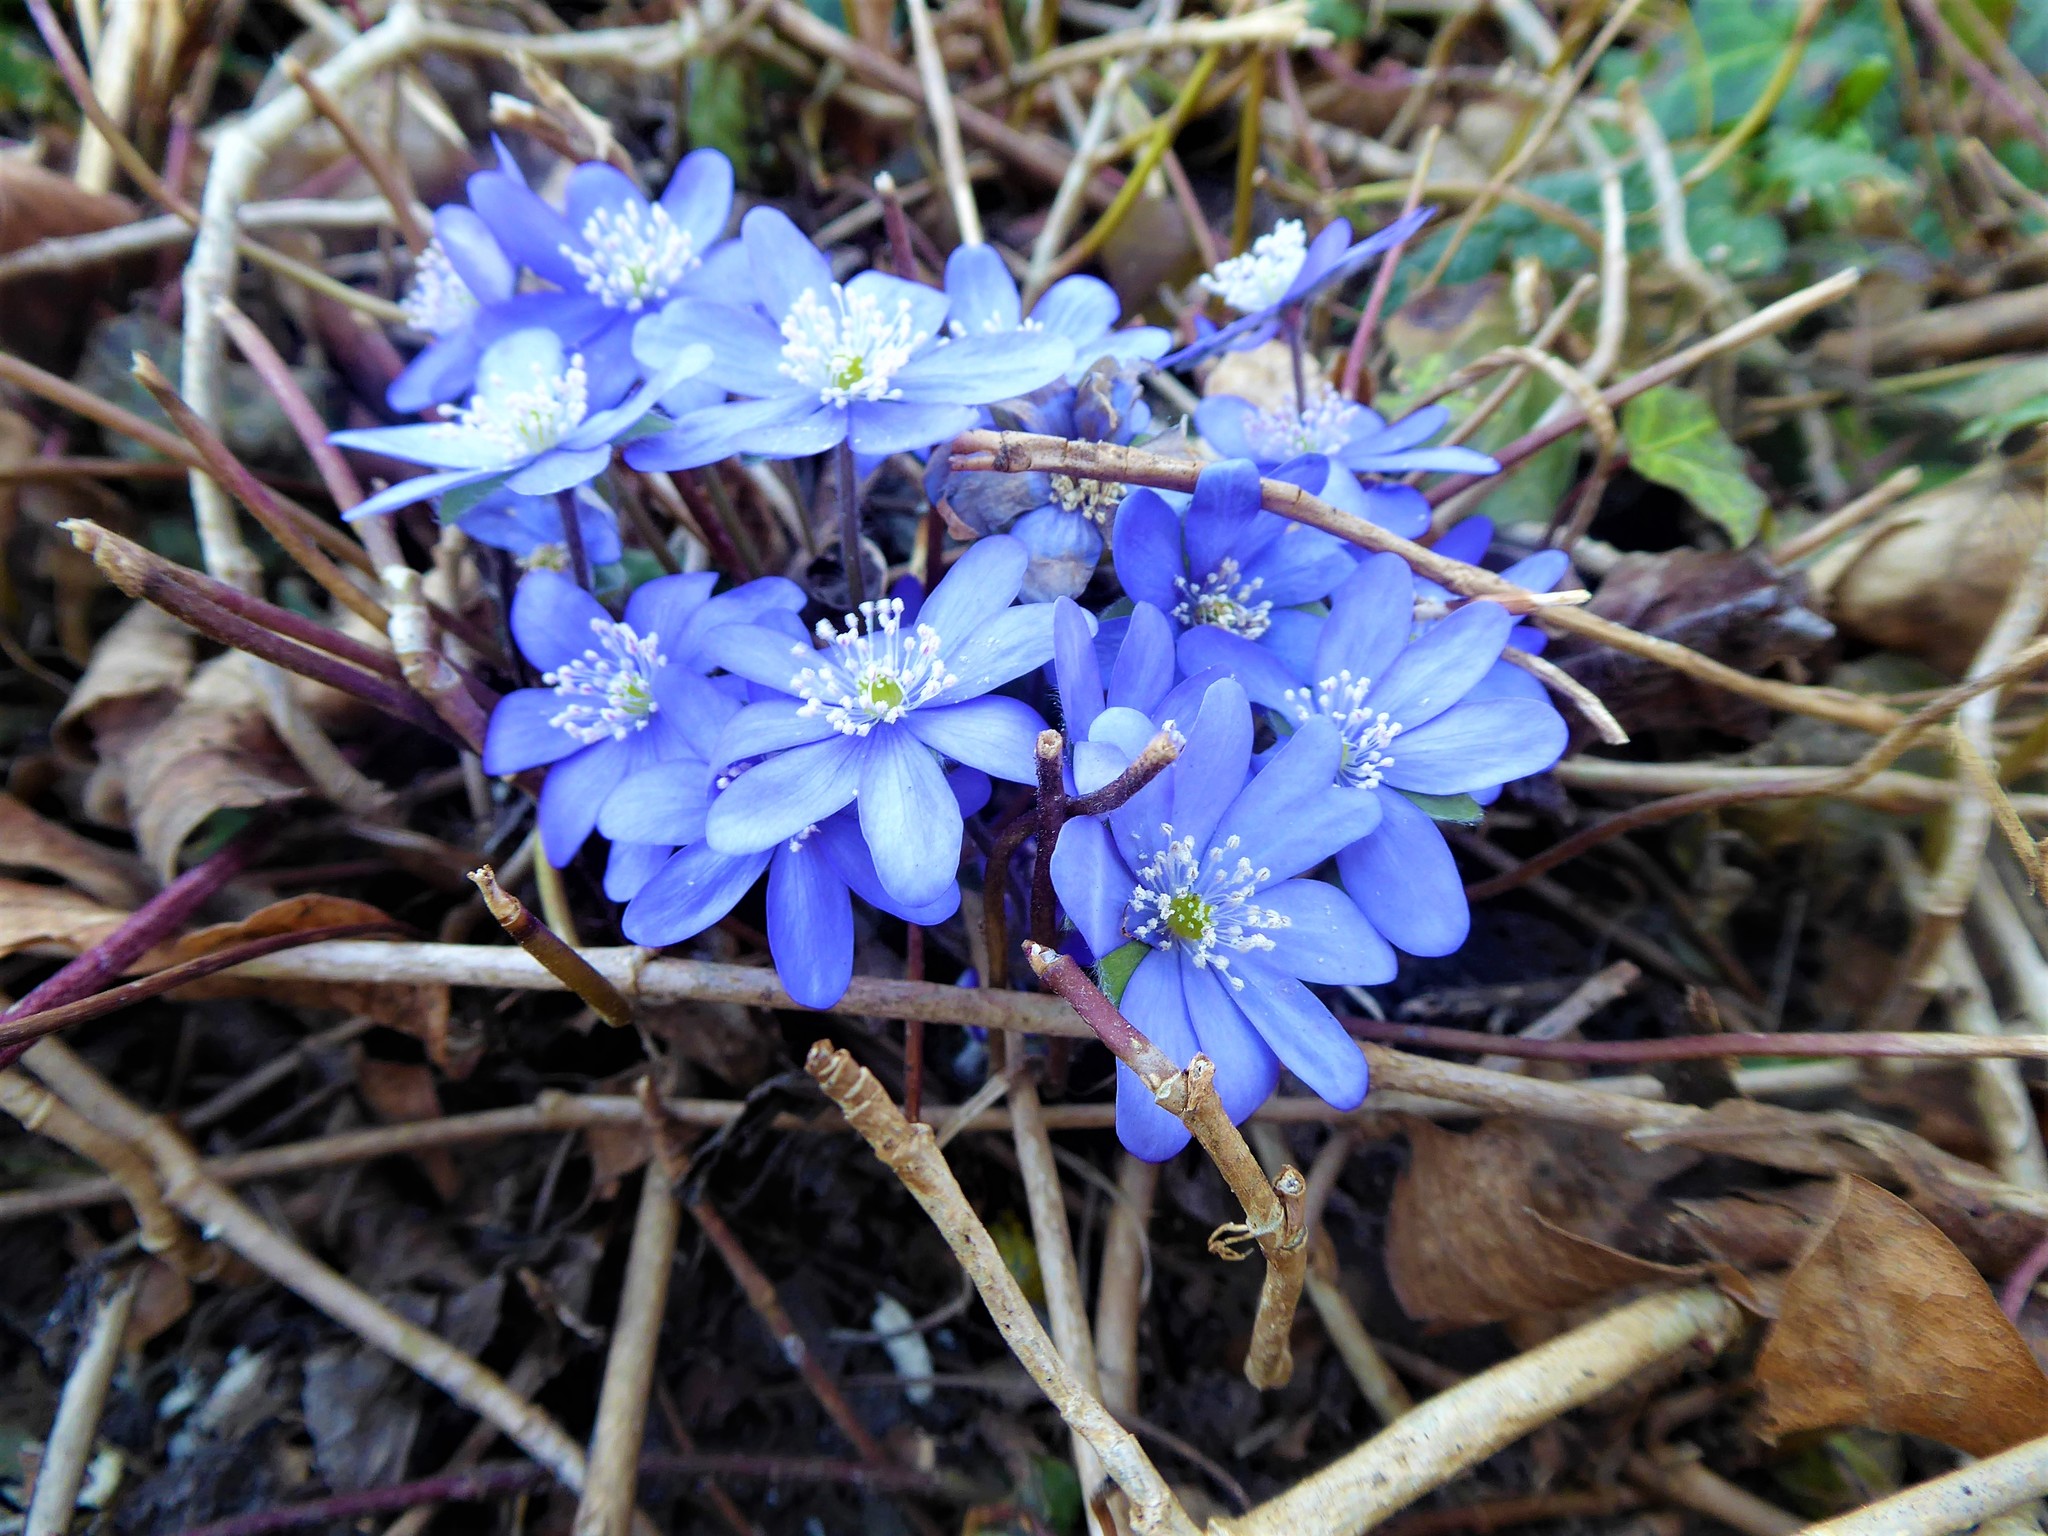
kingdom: Plantae
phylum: Tracheophyta
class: Magnoliopsida
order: Ranunculales
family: Ranunculaceae
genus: Hepatica
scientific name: Hepatica nobilis
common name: Liverleaf
